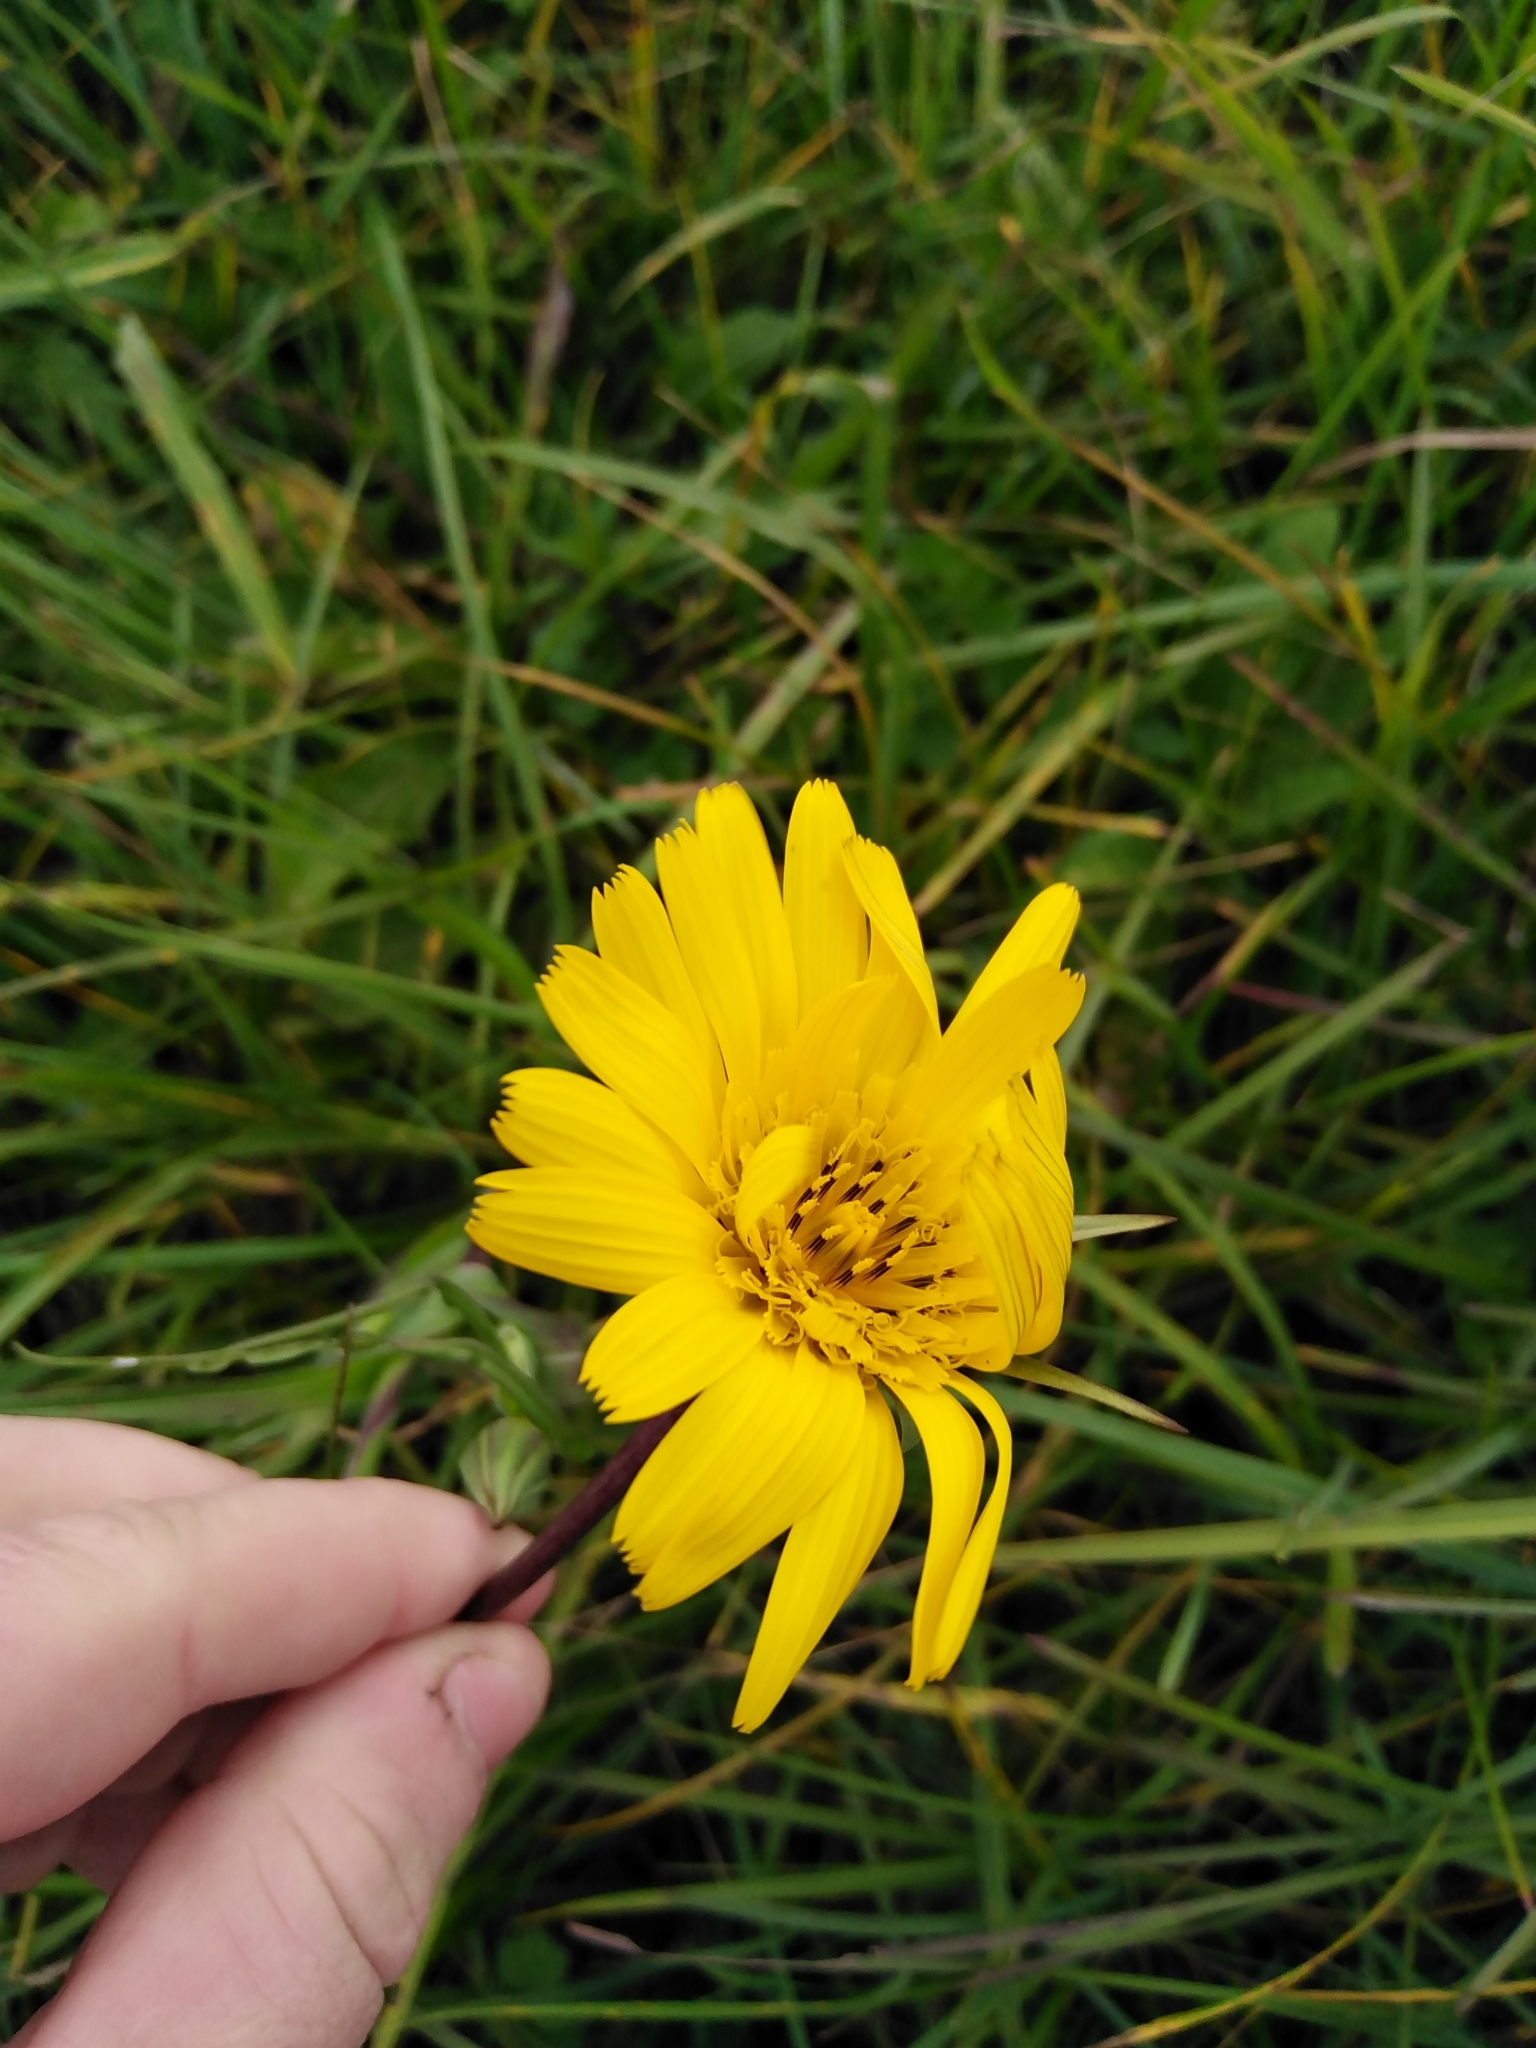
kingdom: Plantae
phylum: Tracheophyta
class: Magnoliopsida
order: Asterales
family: Asteraceae
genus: Tragopogon
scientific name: Tragopogon orientalis
